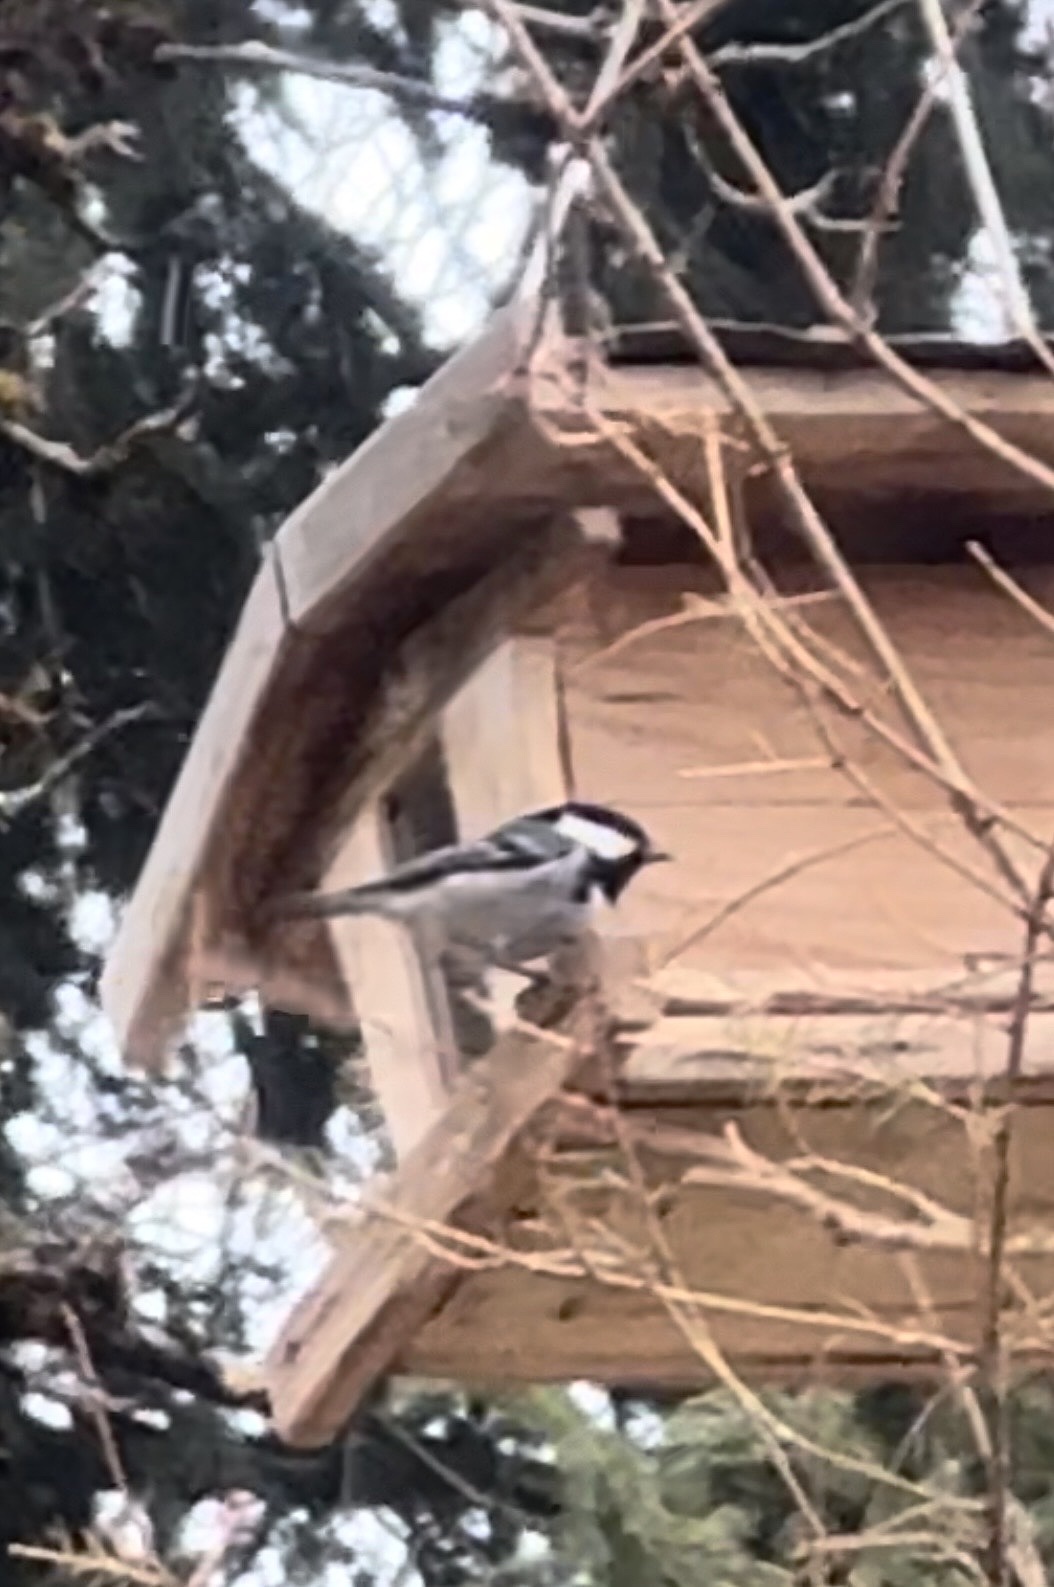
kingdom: Animalia
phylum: Chordata
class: Aves
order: Passeriformes
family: Paridae
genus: Periparus
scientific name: Periparus ater
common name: Coal tit
